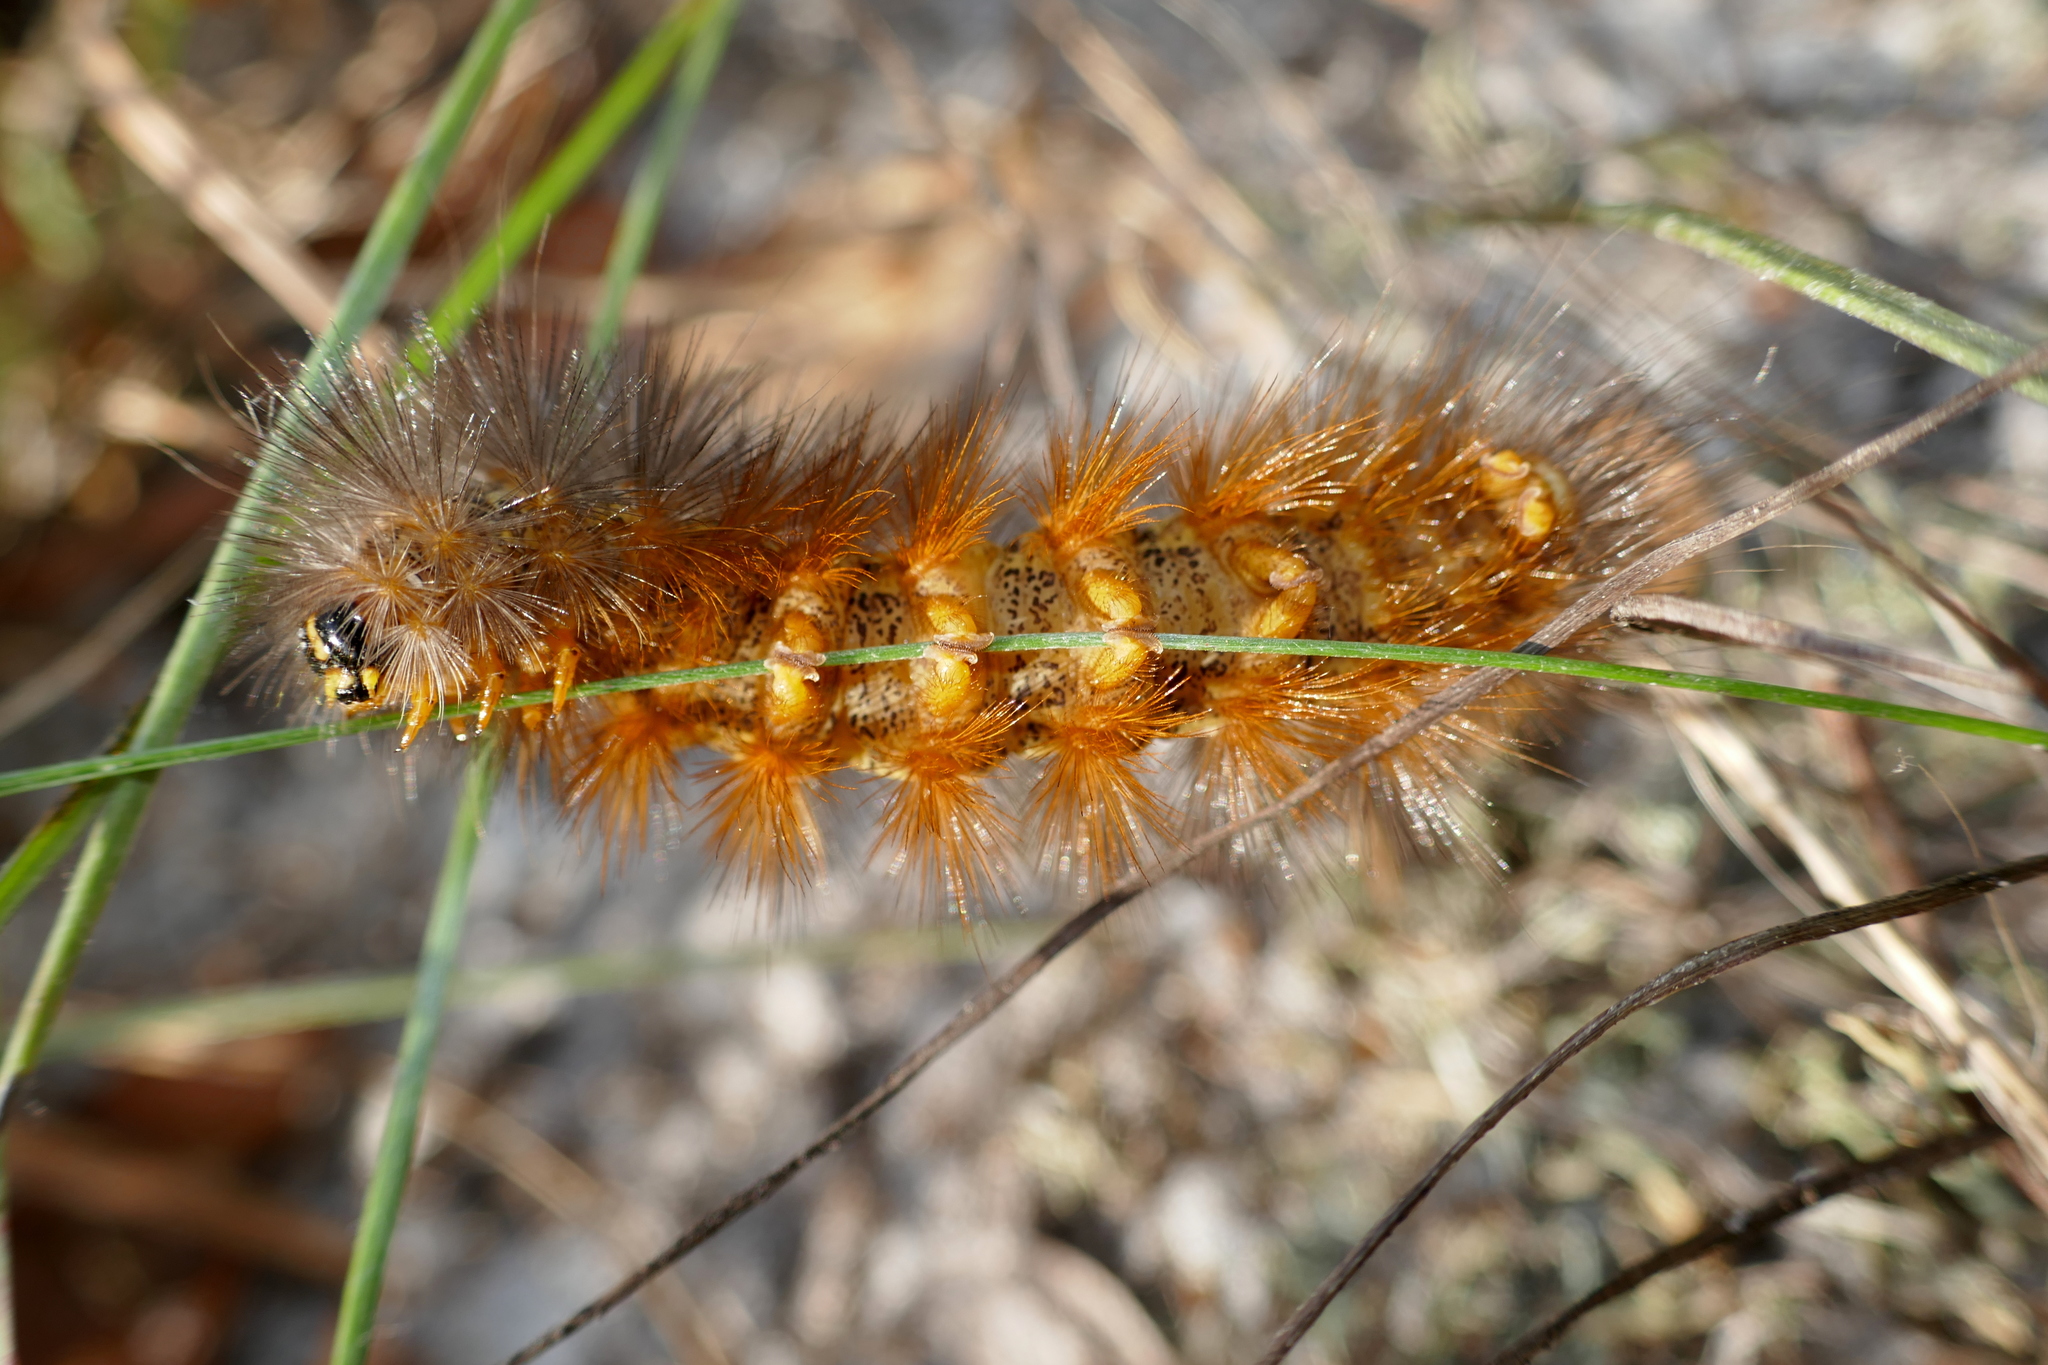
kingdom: Animalia
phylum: Arthropoda
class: Insecta
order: Lepidoptera
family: Erebidae
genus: Estigmene
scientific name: Estigmene acrea
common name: Salt marsh moth
